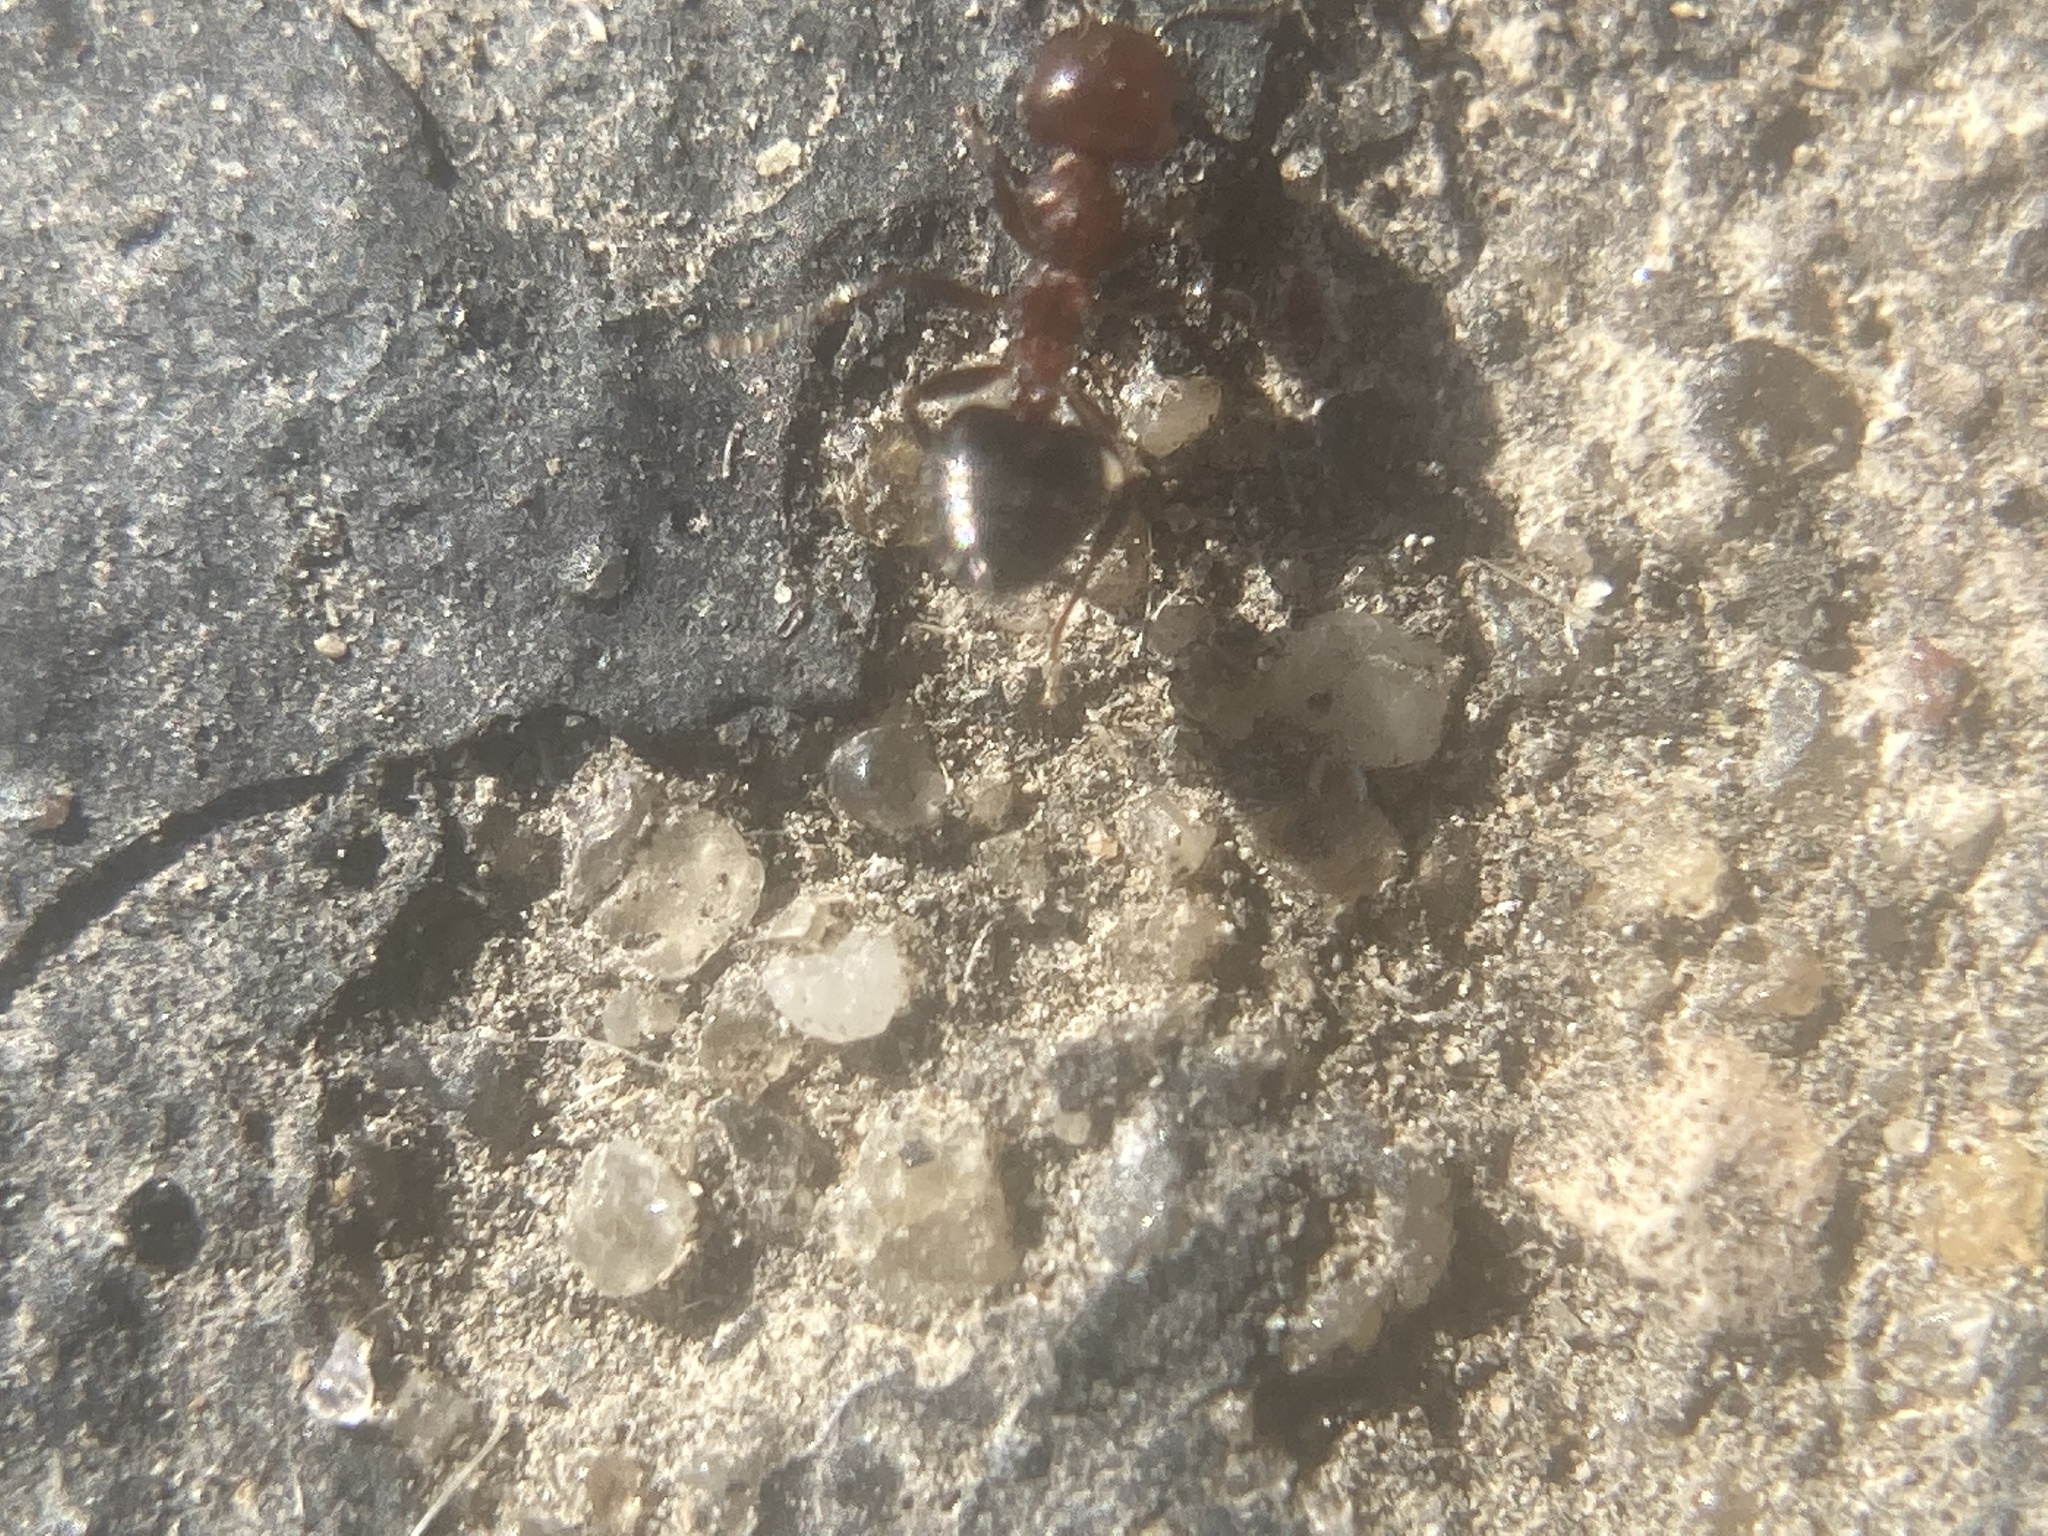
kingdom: Animalia
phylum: Arthropoda
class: Insecta
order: Hymenoptera
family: Formicidae
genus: Crematogaster
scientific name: Crematogaster laeviuscula
